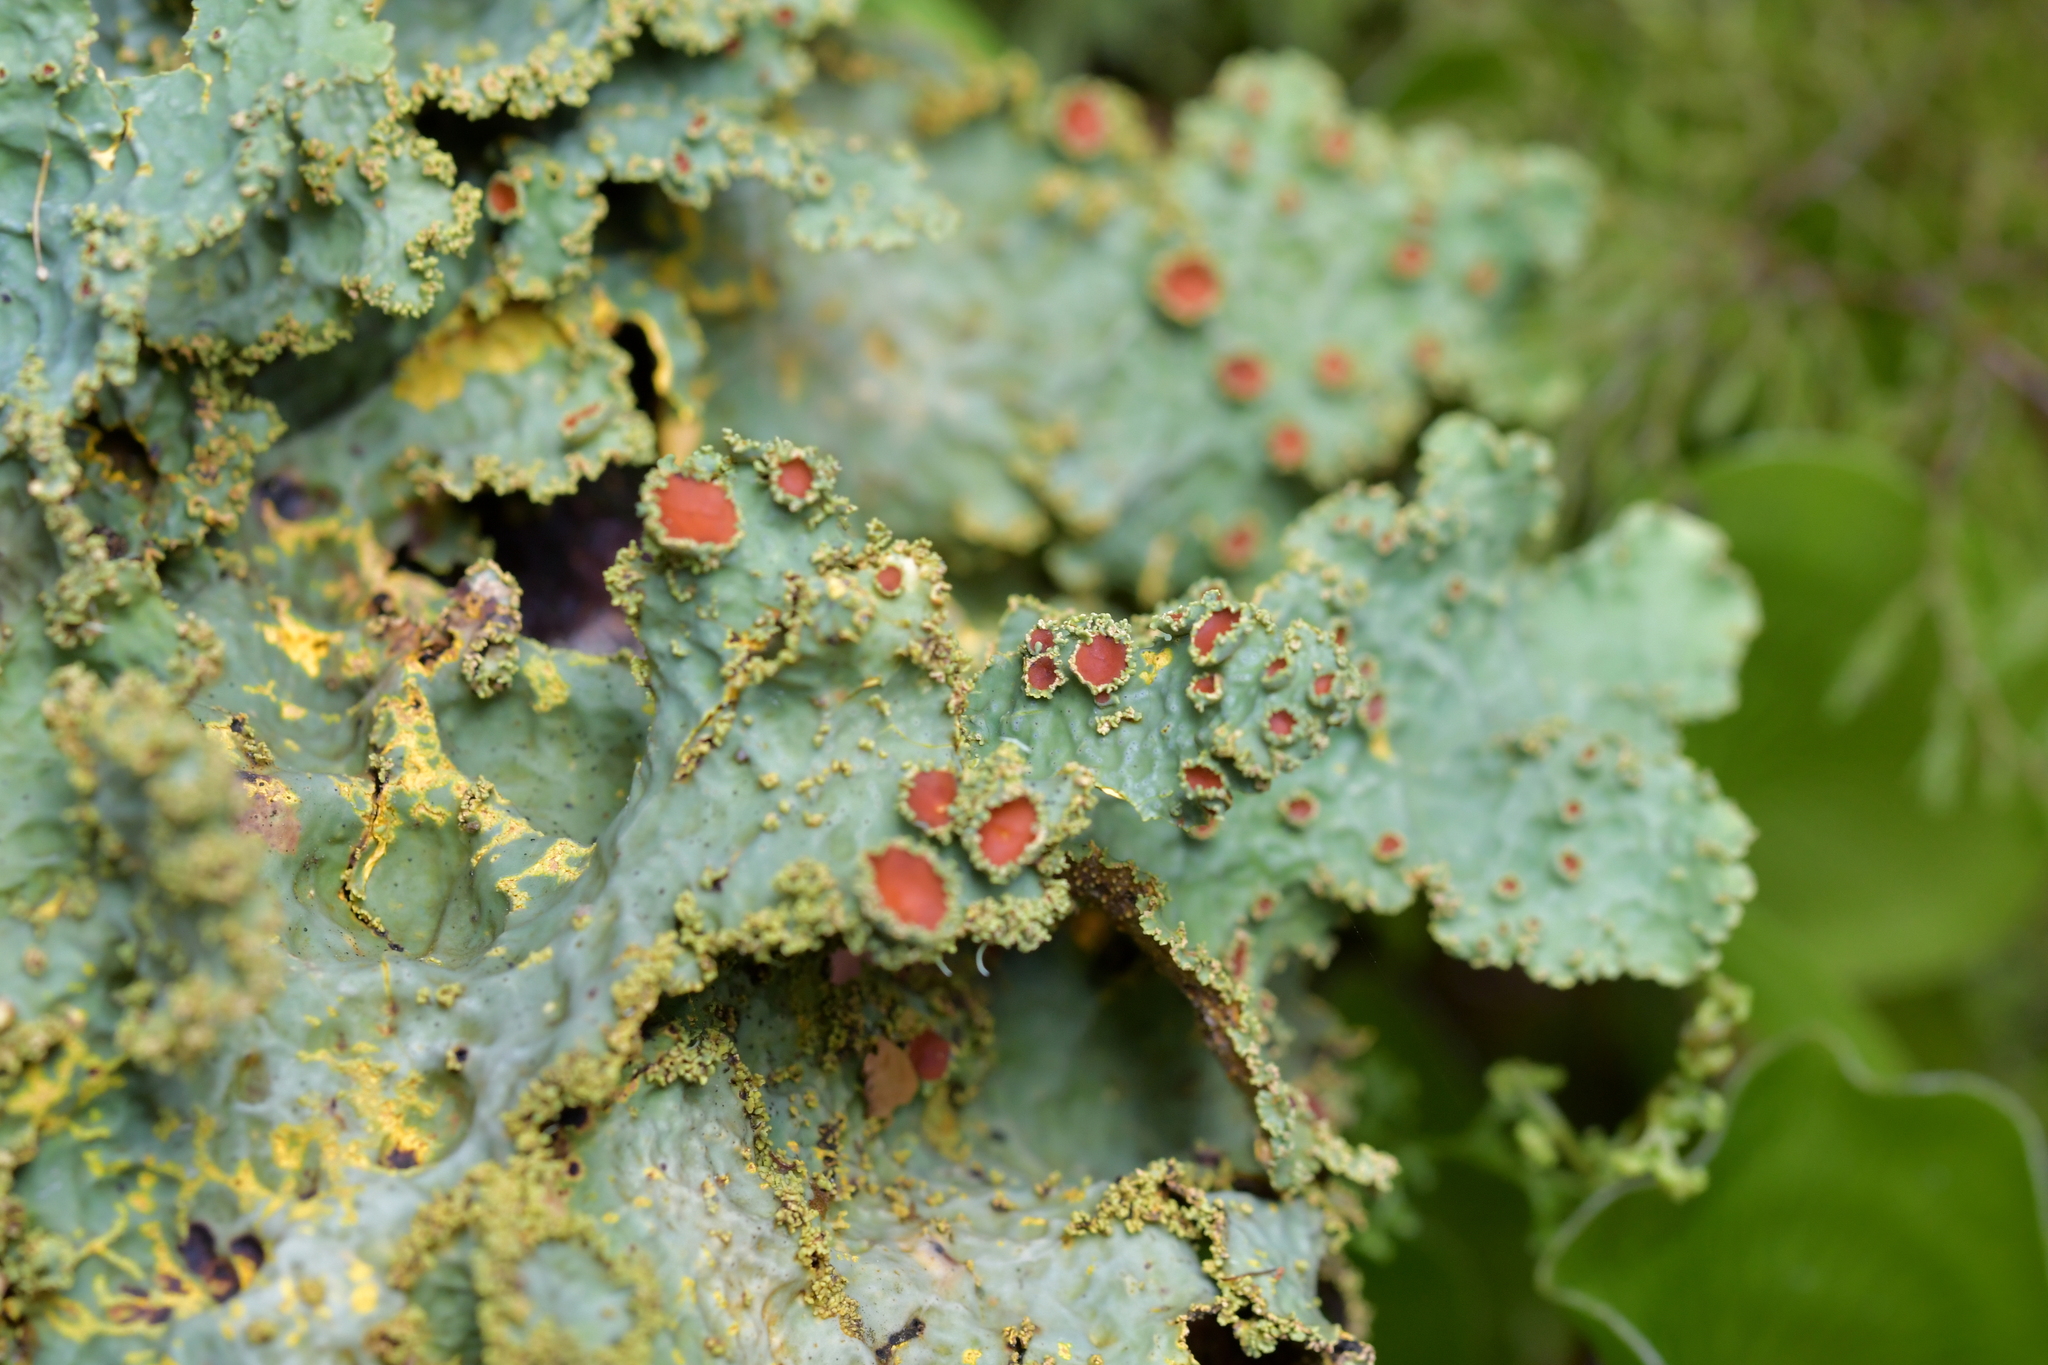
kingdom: Fungi
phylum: Ascomycota
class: Lecanoromycetes
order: Peltigerales
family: Lobariaceae
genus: Yarrumia
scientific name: Yarrumia colensoi
